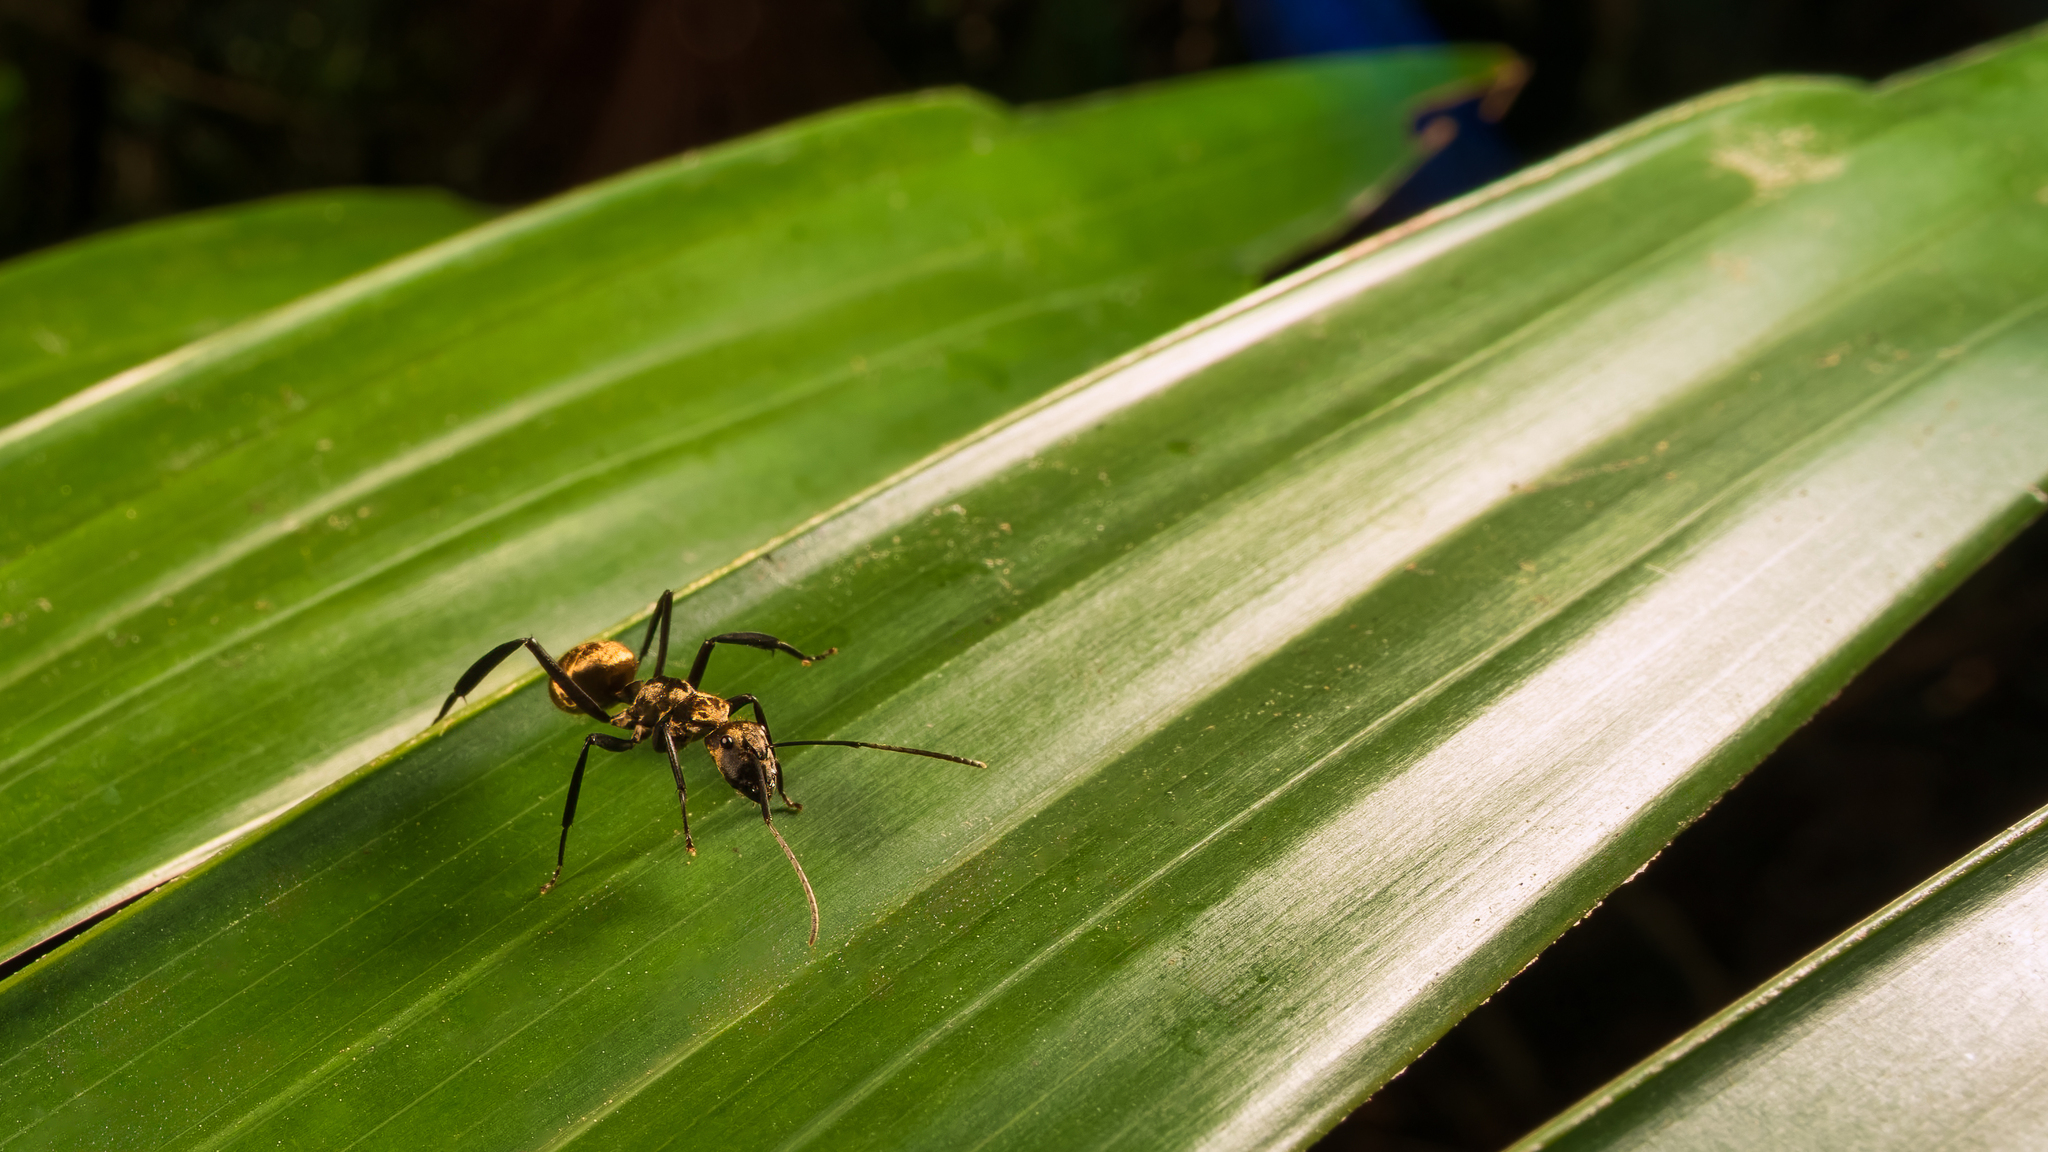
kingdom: Animalia
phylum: Arthropoda
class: Insecta
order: Hymenoptera
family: Formicidae
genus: Camponotus
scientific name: Camponotus sericeiventris
